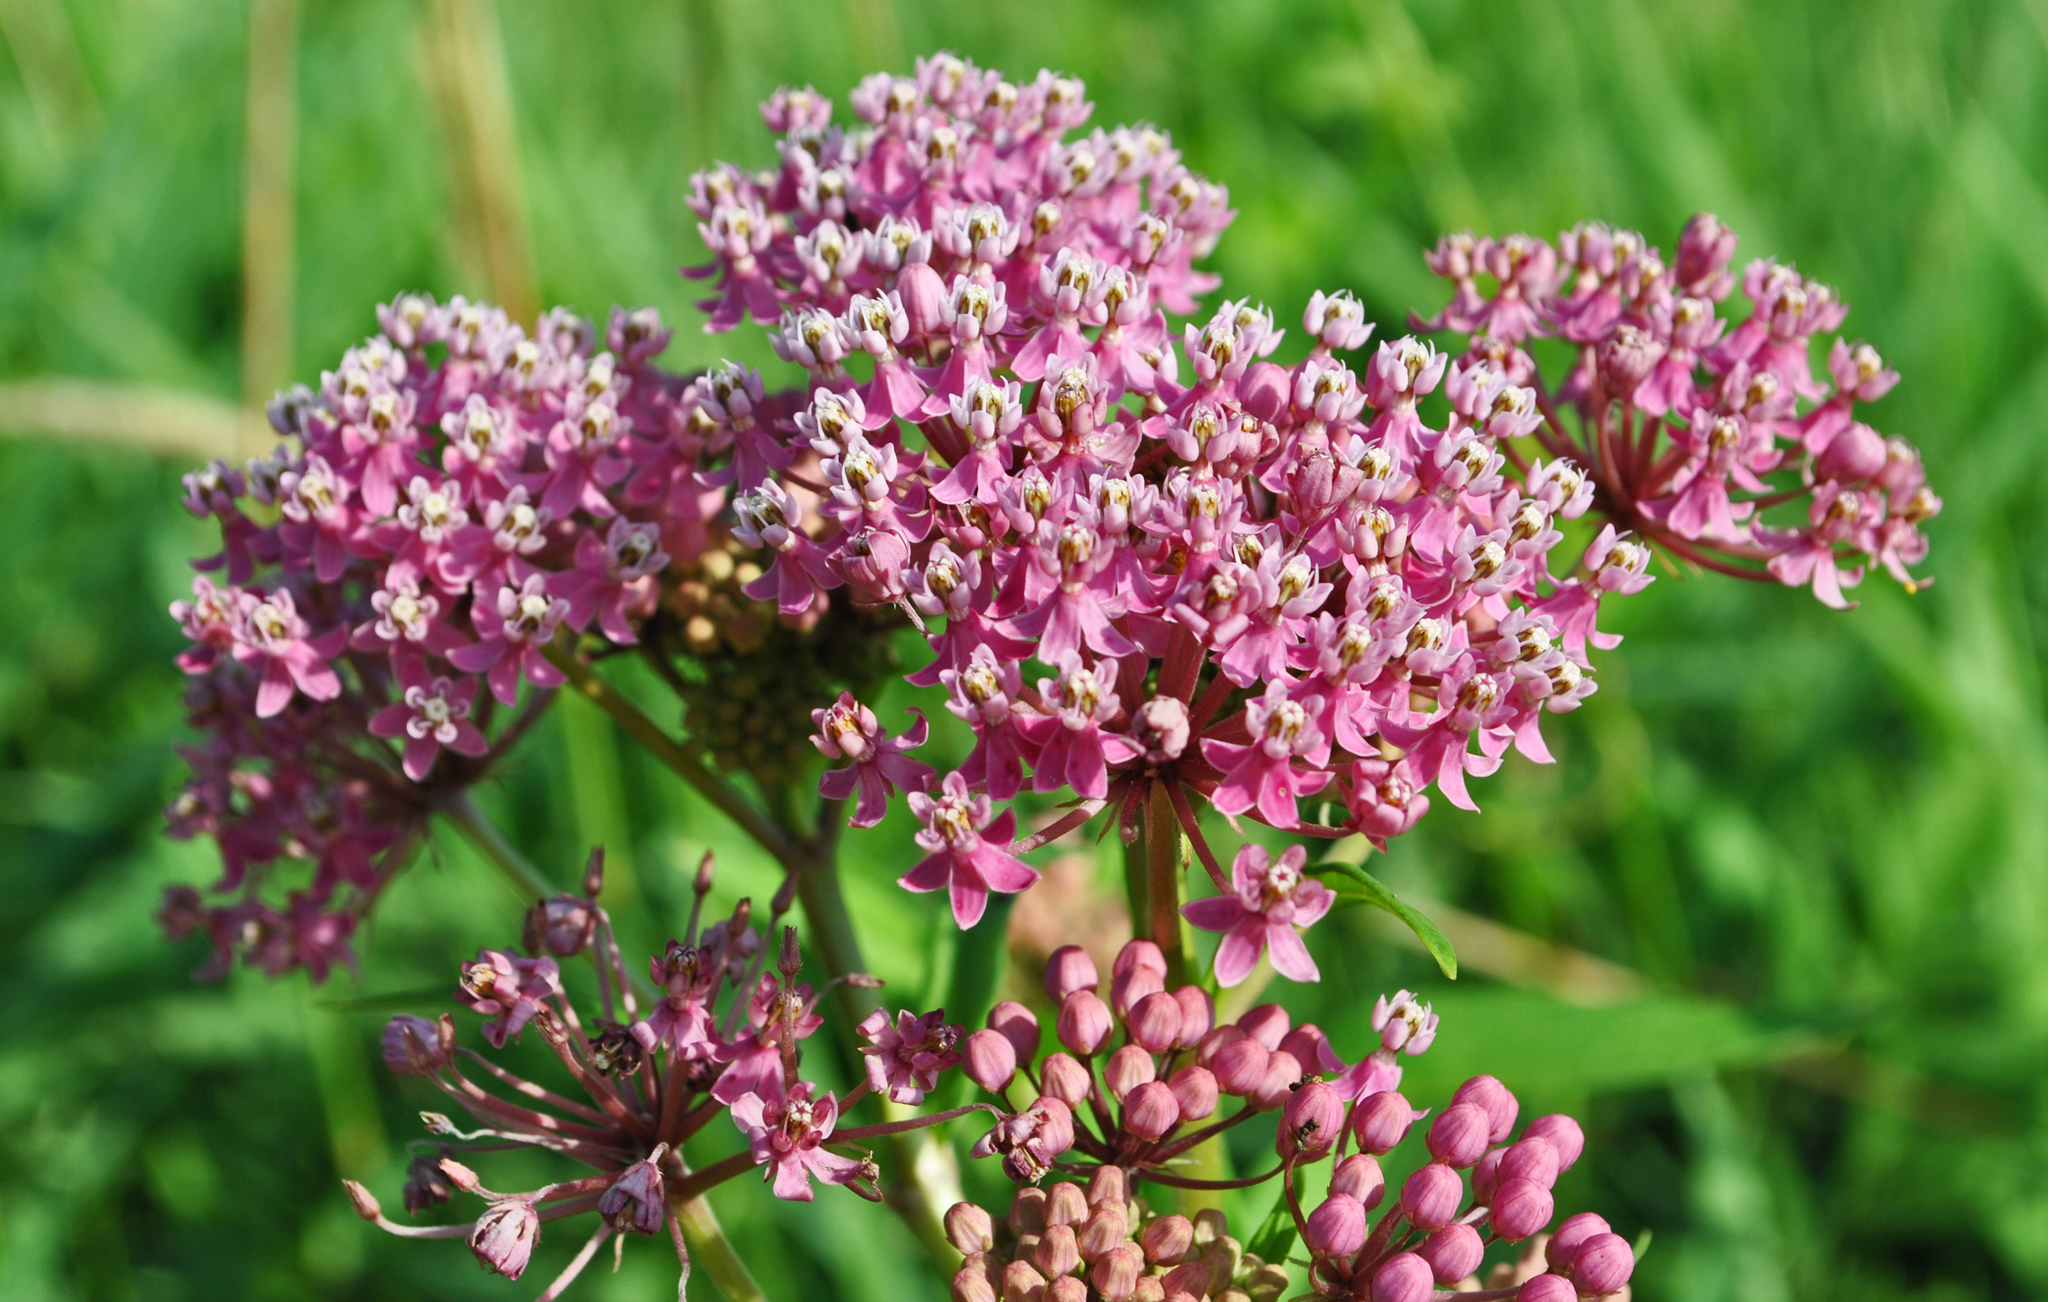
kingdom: Plantae
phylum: Tracheophyta
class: Magnoliopsida
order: Gentianales
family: Apocynaceae
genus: Asclepias
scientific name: Asclepias incarnata
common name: Swamp milkweed
